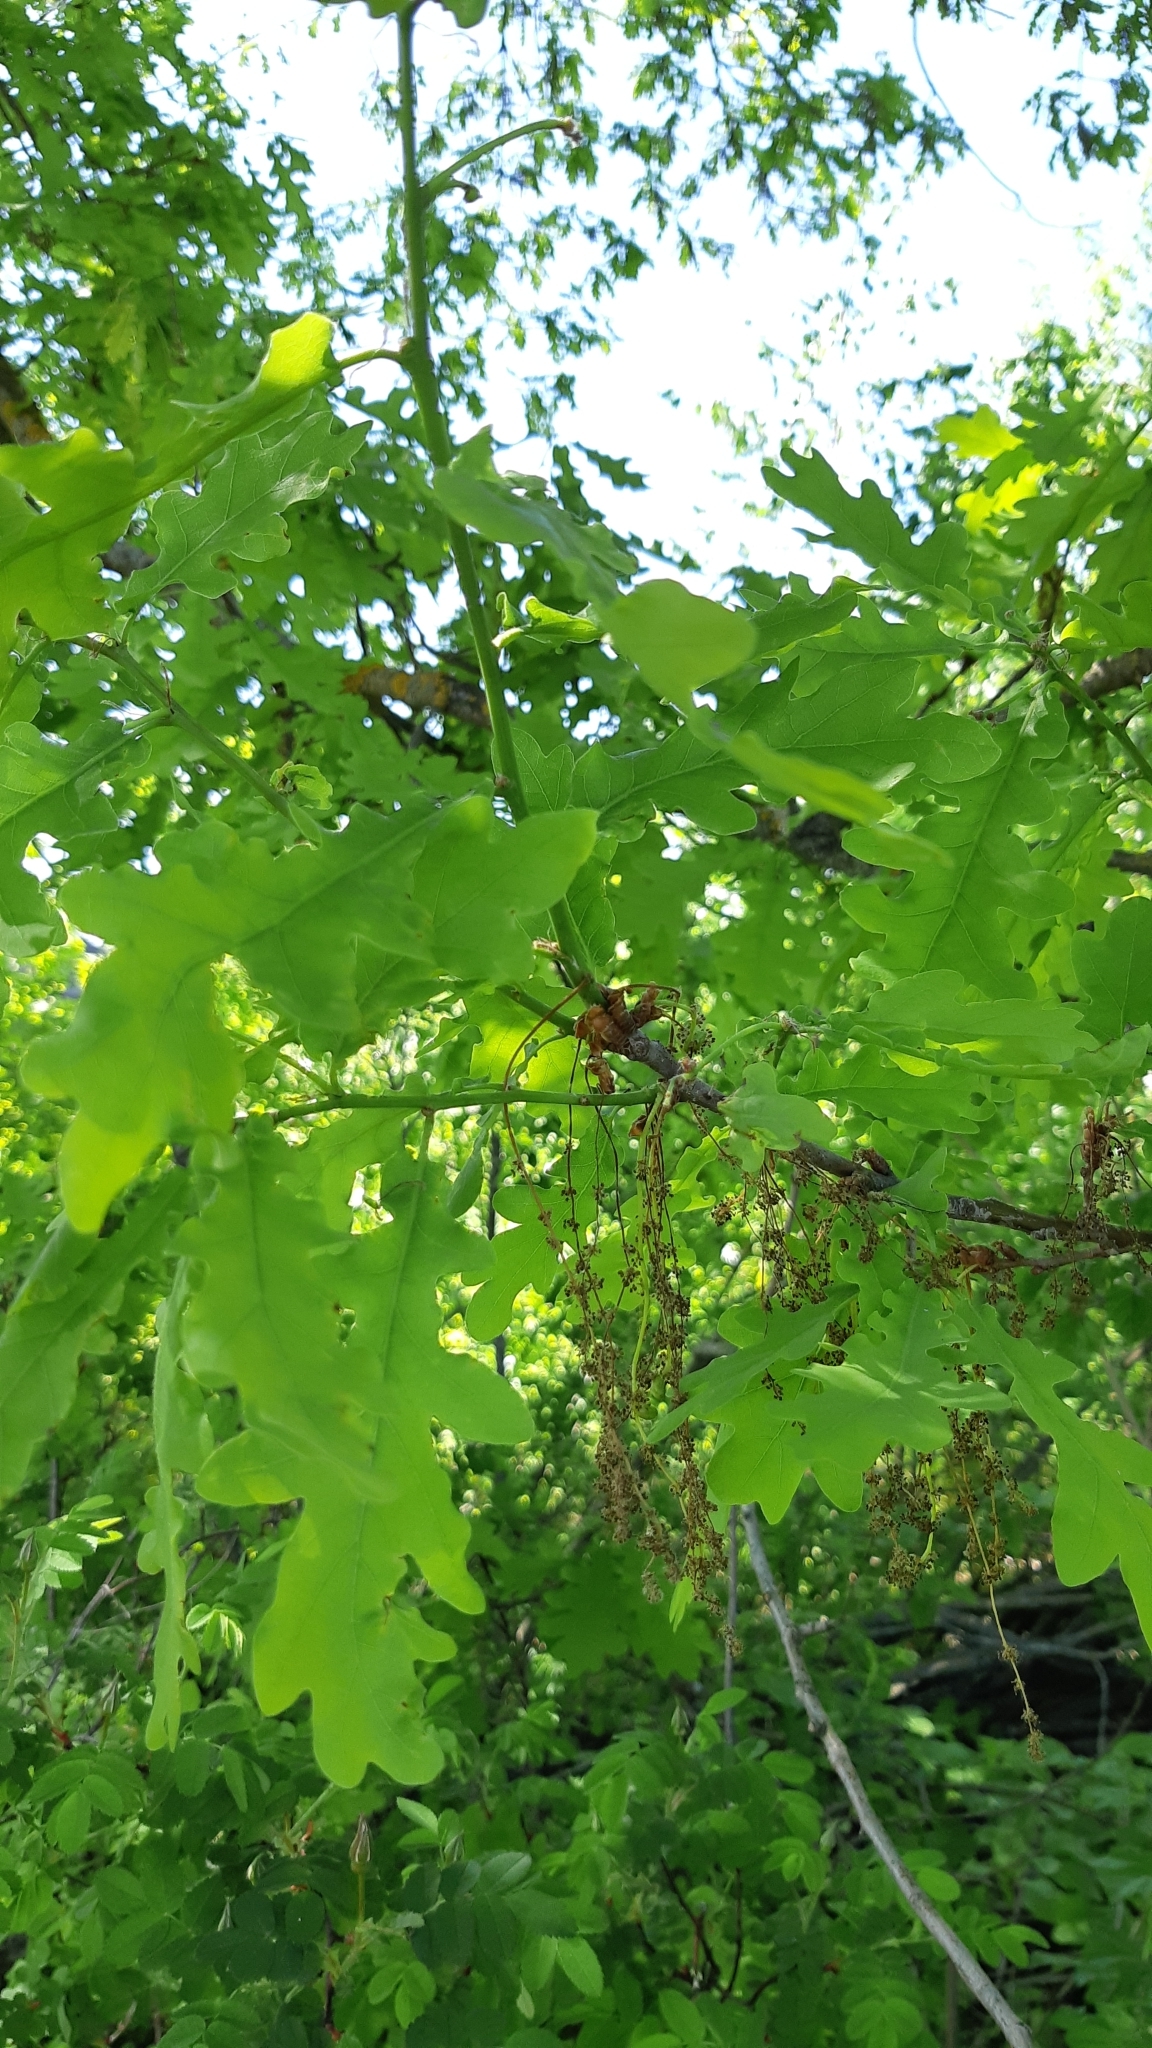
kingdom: Plantae
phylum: Tracheophyta
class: Magnoliopsida
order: Fagales
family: Fagaceae
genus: Quercus
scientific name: Quercus robur
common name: Pedunculate oak
